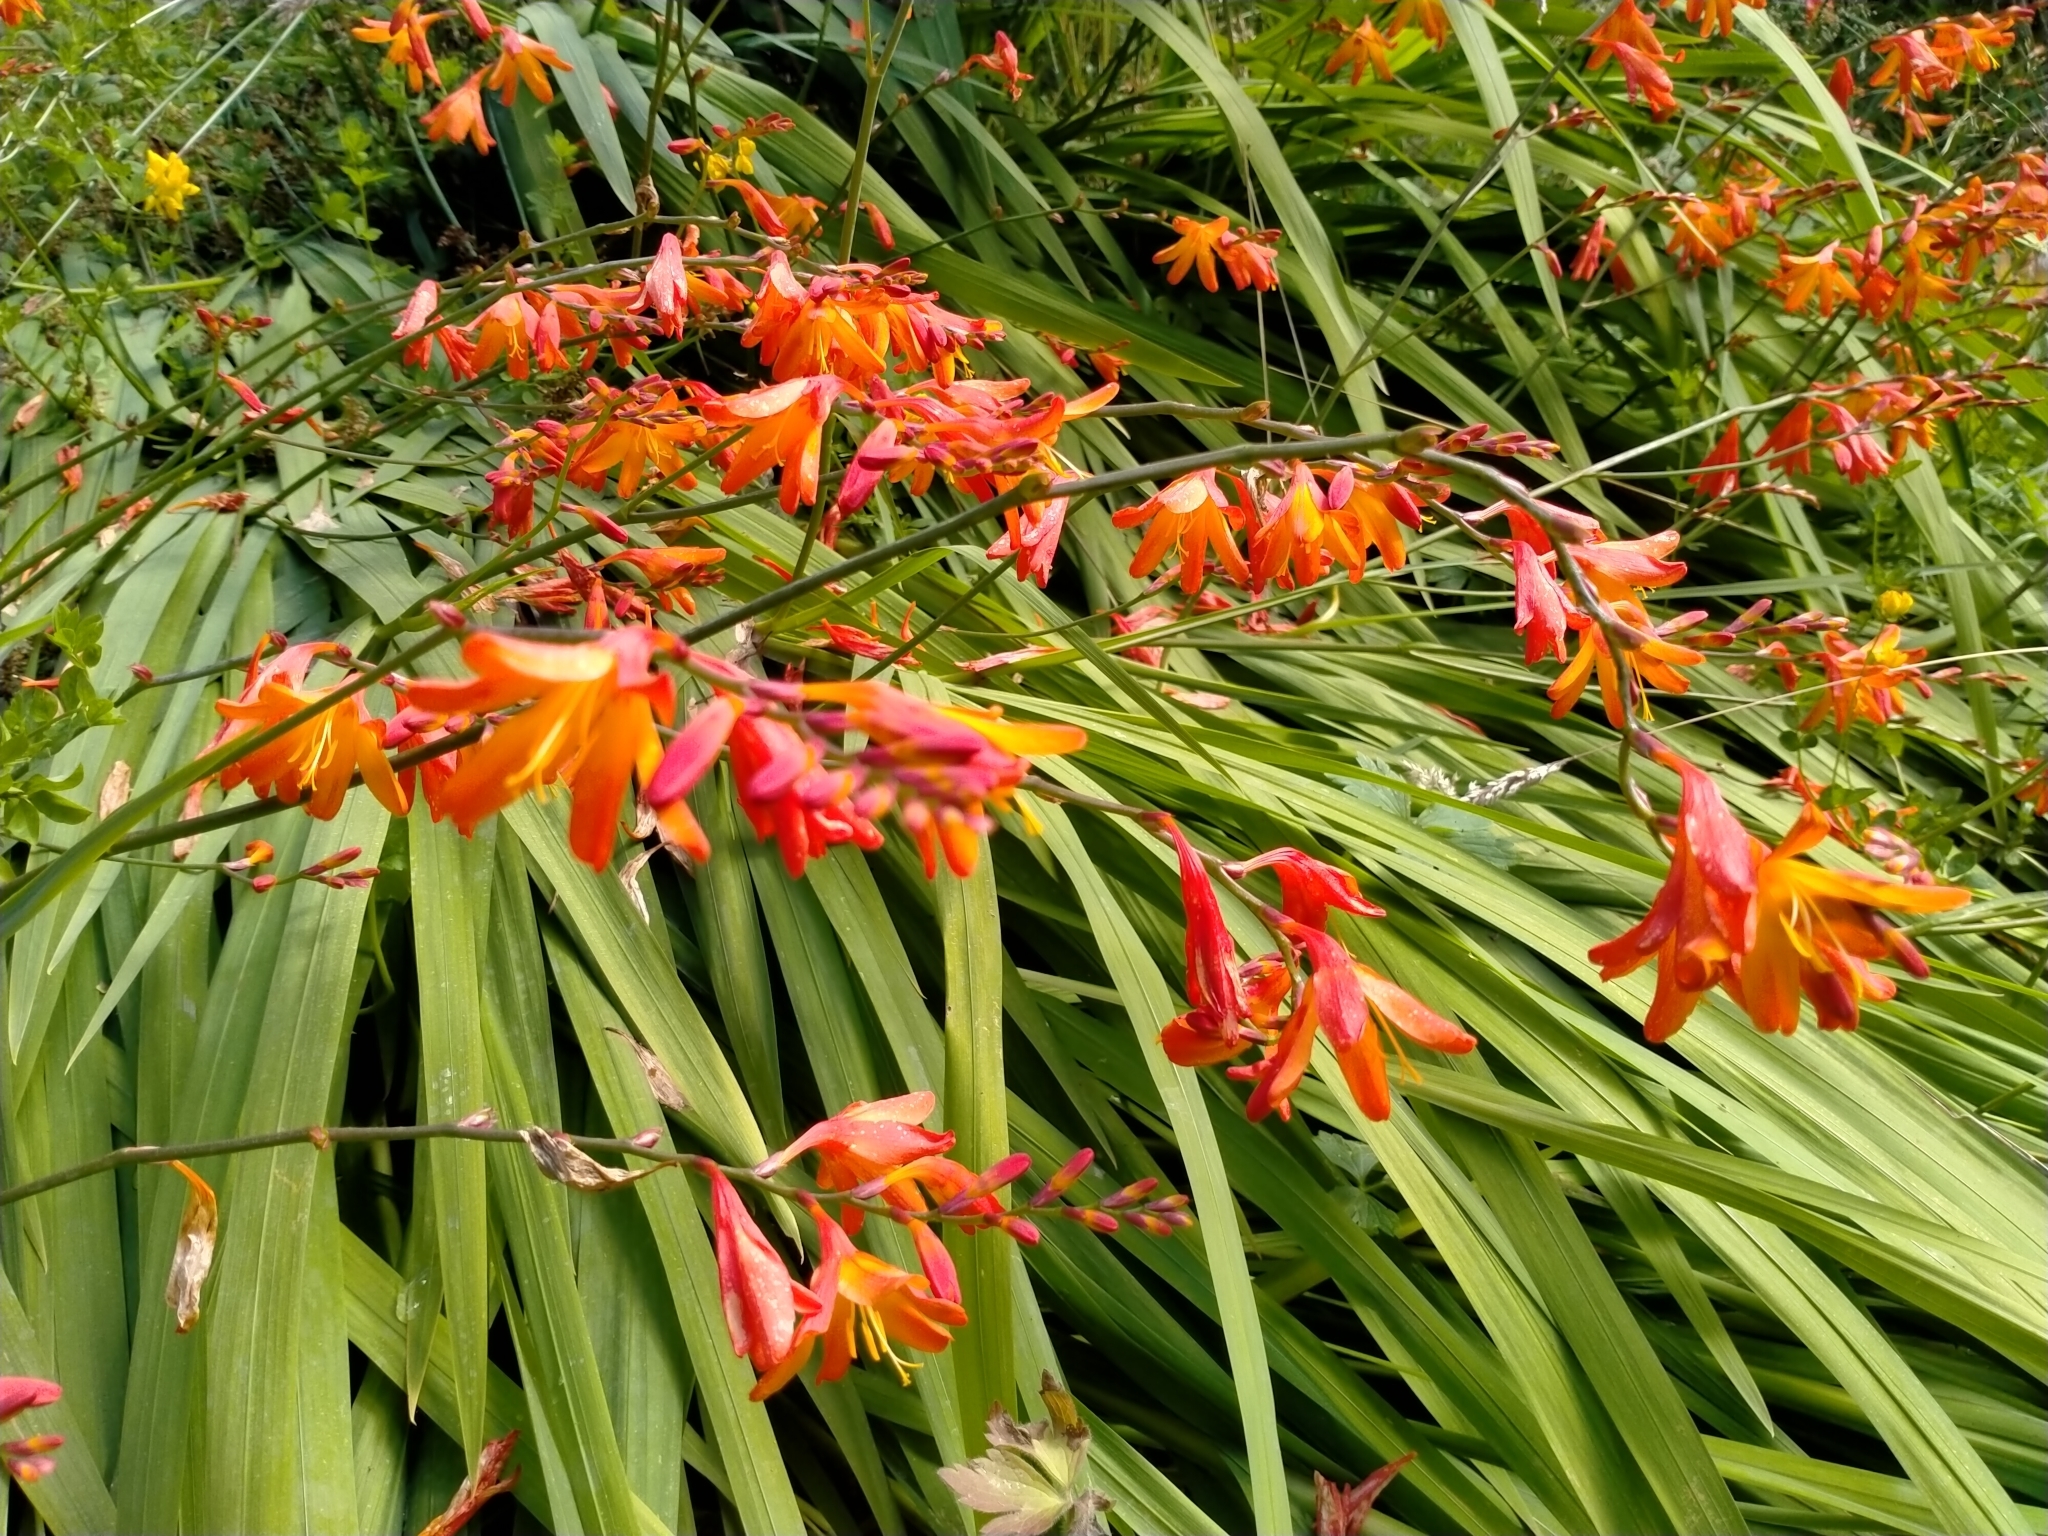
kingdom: Plantae
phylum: Tracheophyta
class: Liliopsida
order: Asparagales
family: Iridaceae
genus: Crocosmia
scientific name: Crocosmia crocosmiiflora
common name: Montbretia
